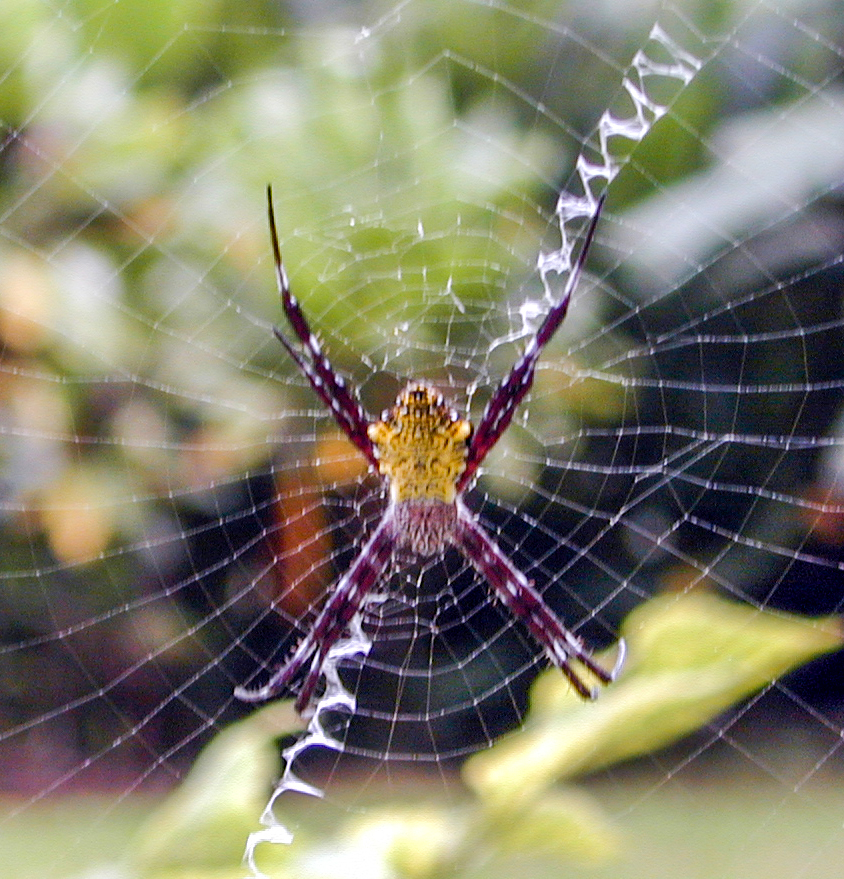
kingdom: Animalia
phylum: Arthropoda
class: Arachnida
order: Araneae
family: Araneidae
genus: Argiope
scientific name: Argiope appensa
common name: Garden spider
